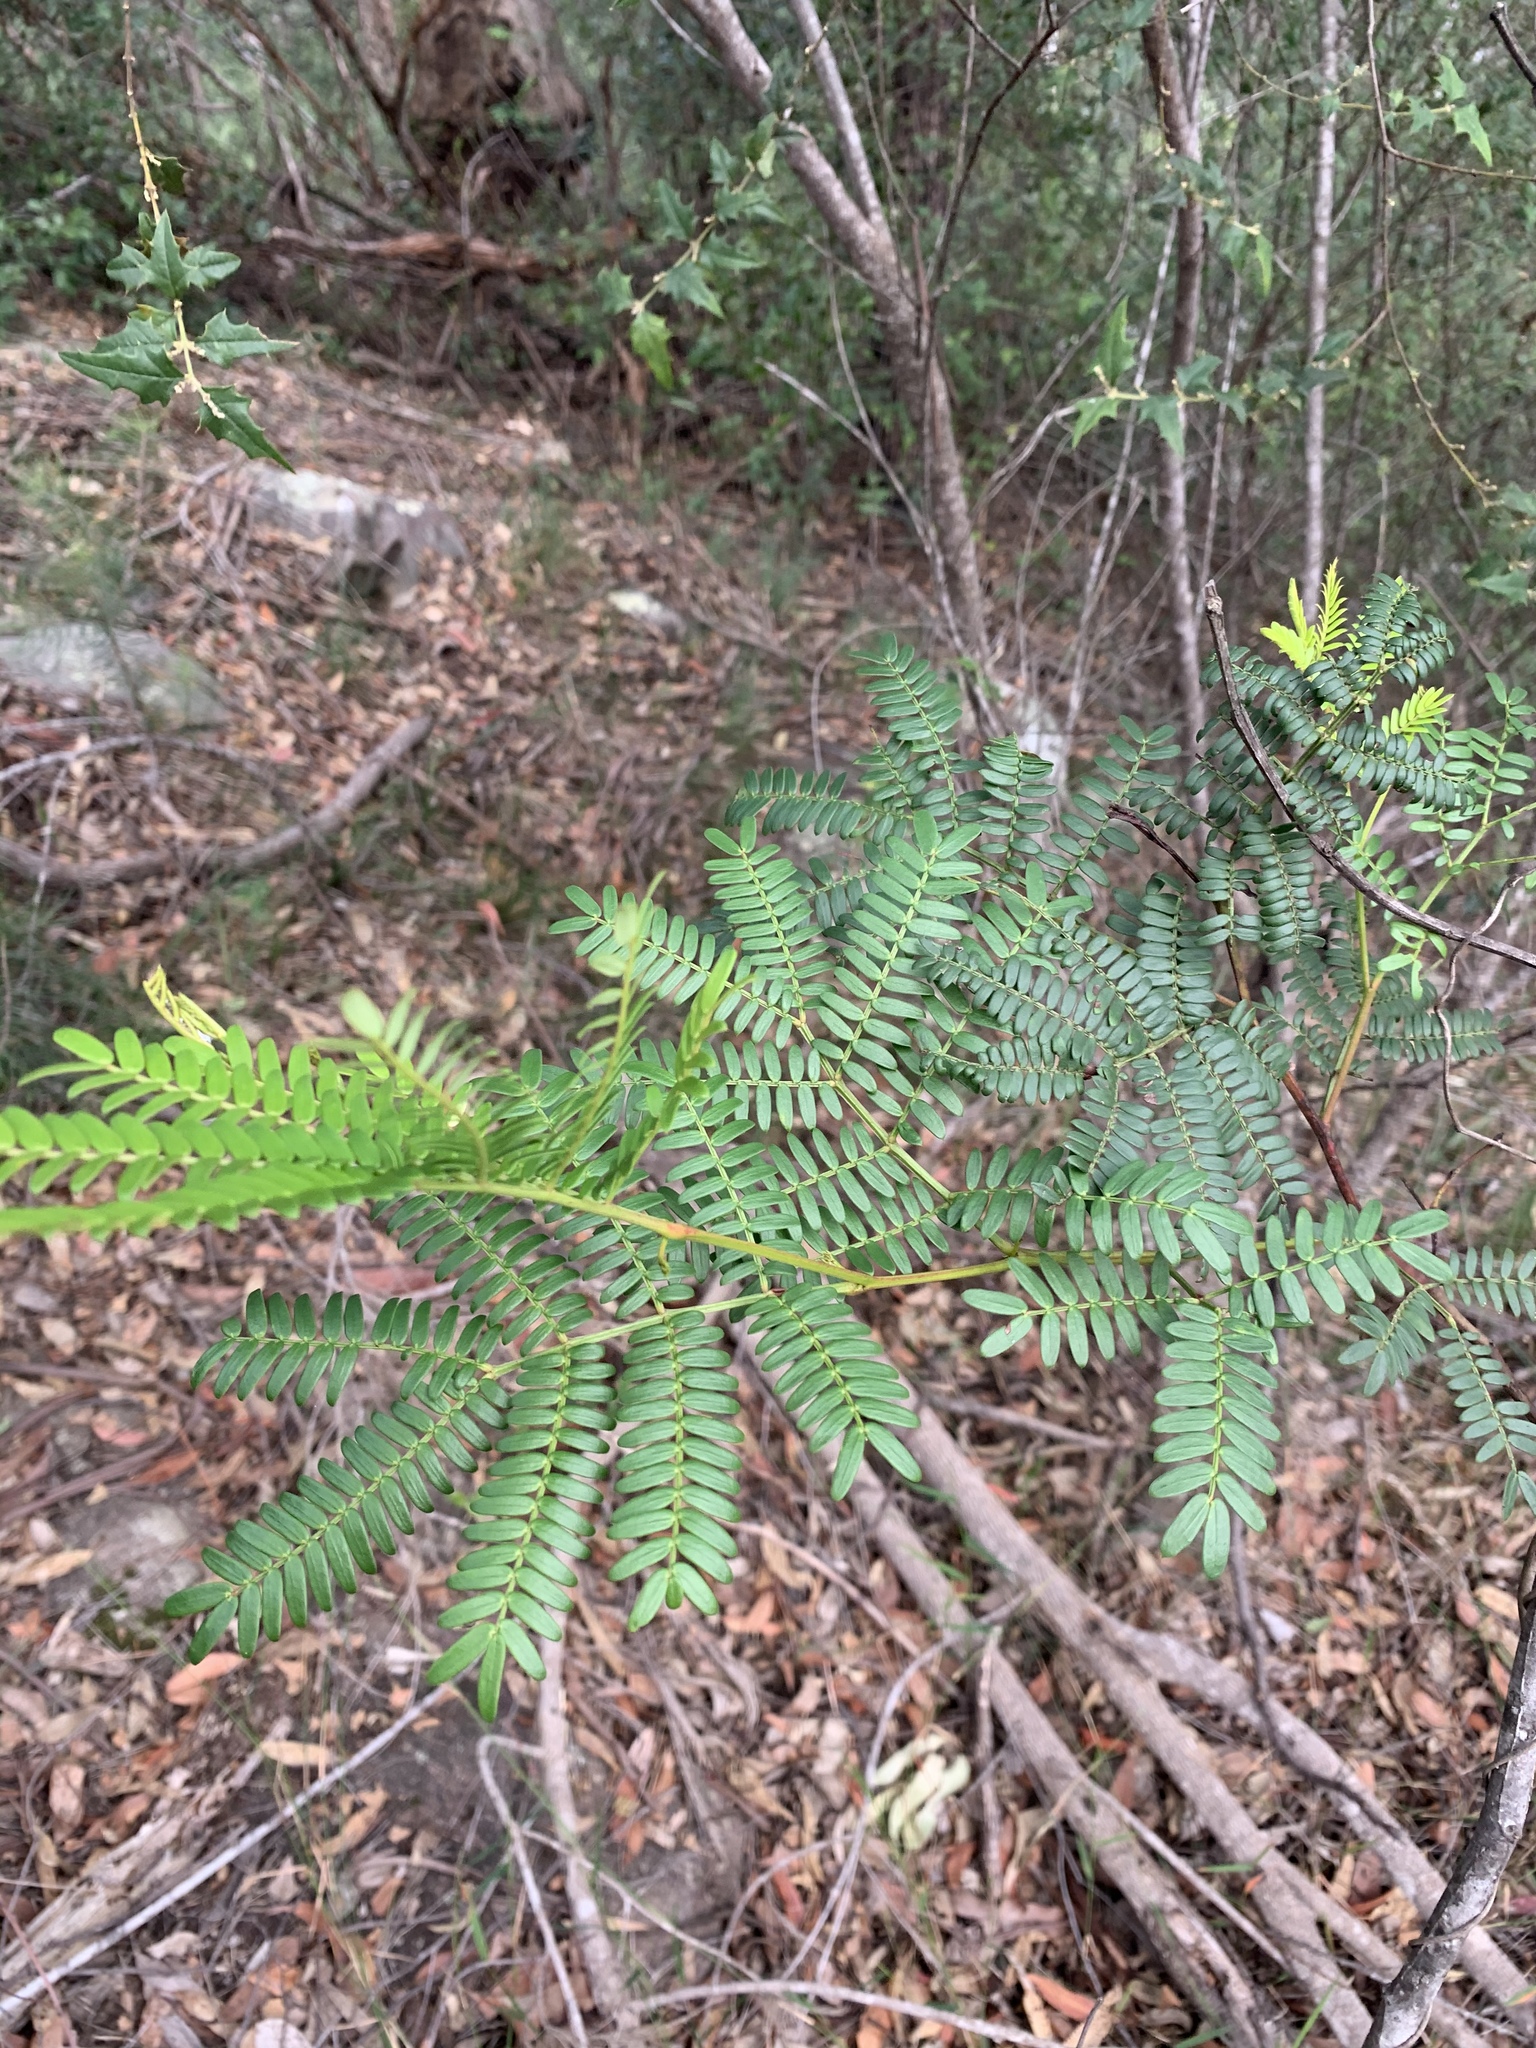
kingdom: Plantae
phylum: Tracheophyta
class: Magnoliopsida
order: Fabales
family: Fabaceae
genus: Acacia
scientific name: Acacia terminalis
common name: Cedar wattle
